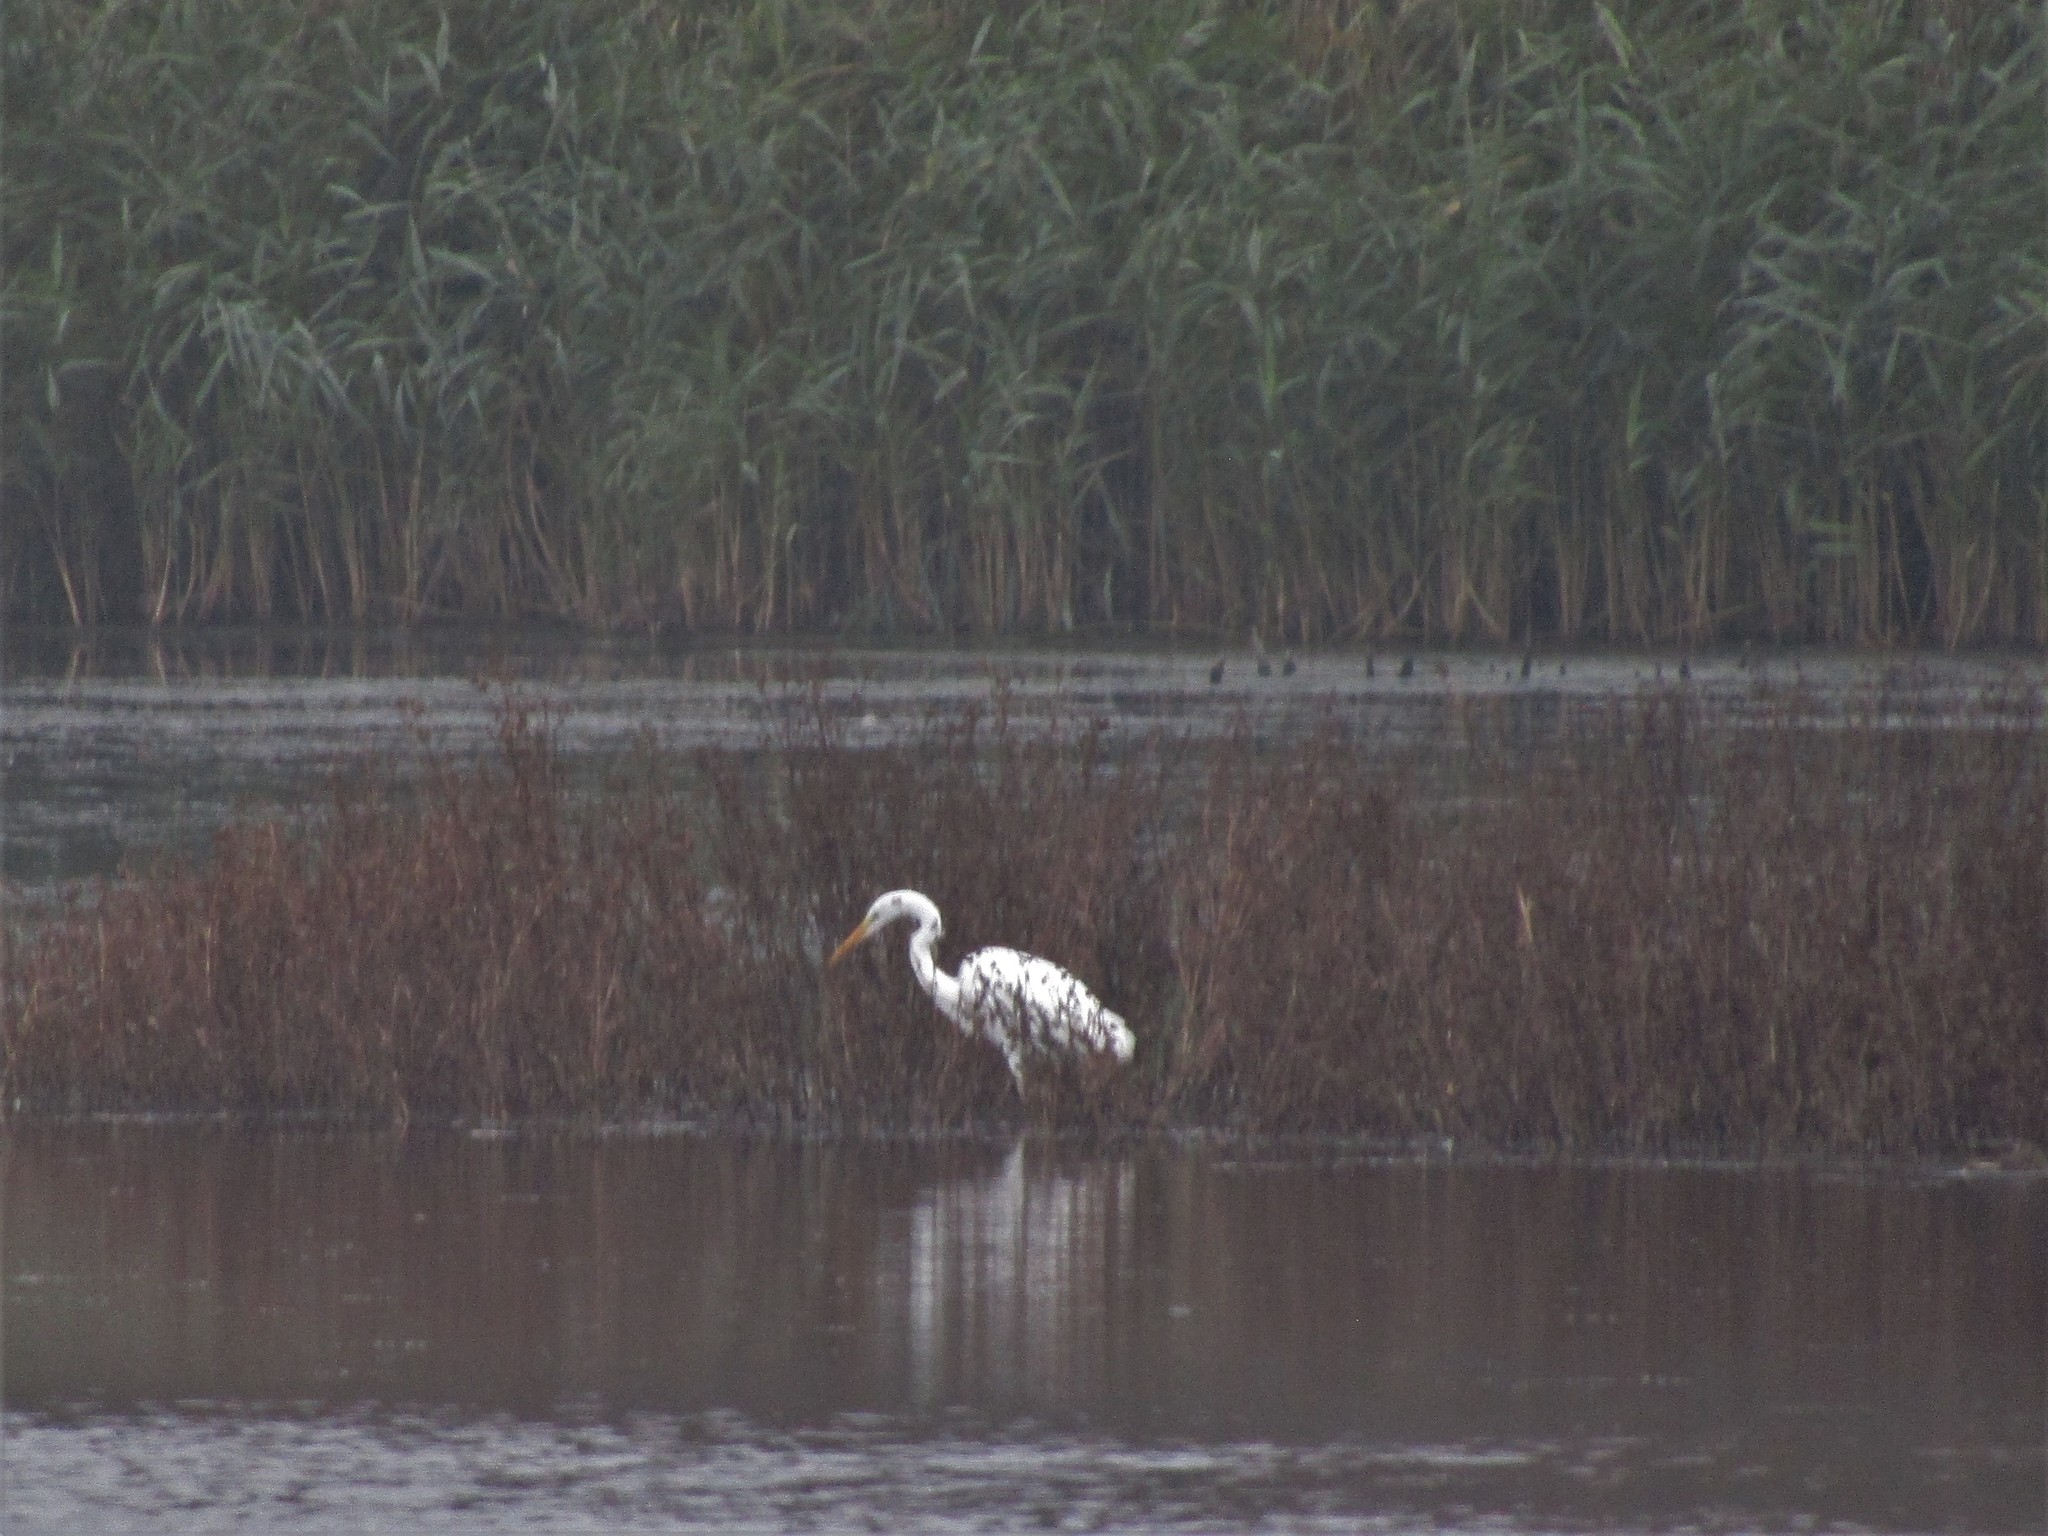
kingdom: Animalia
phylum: Chordata
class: Aves
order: Pelecaniformes
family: Ardeidae
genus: Ardea
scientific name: Ardea alba
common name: Great egret
